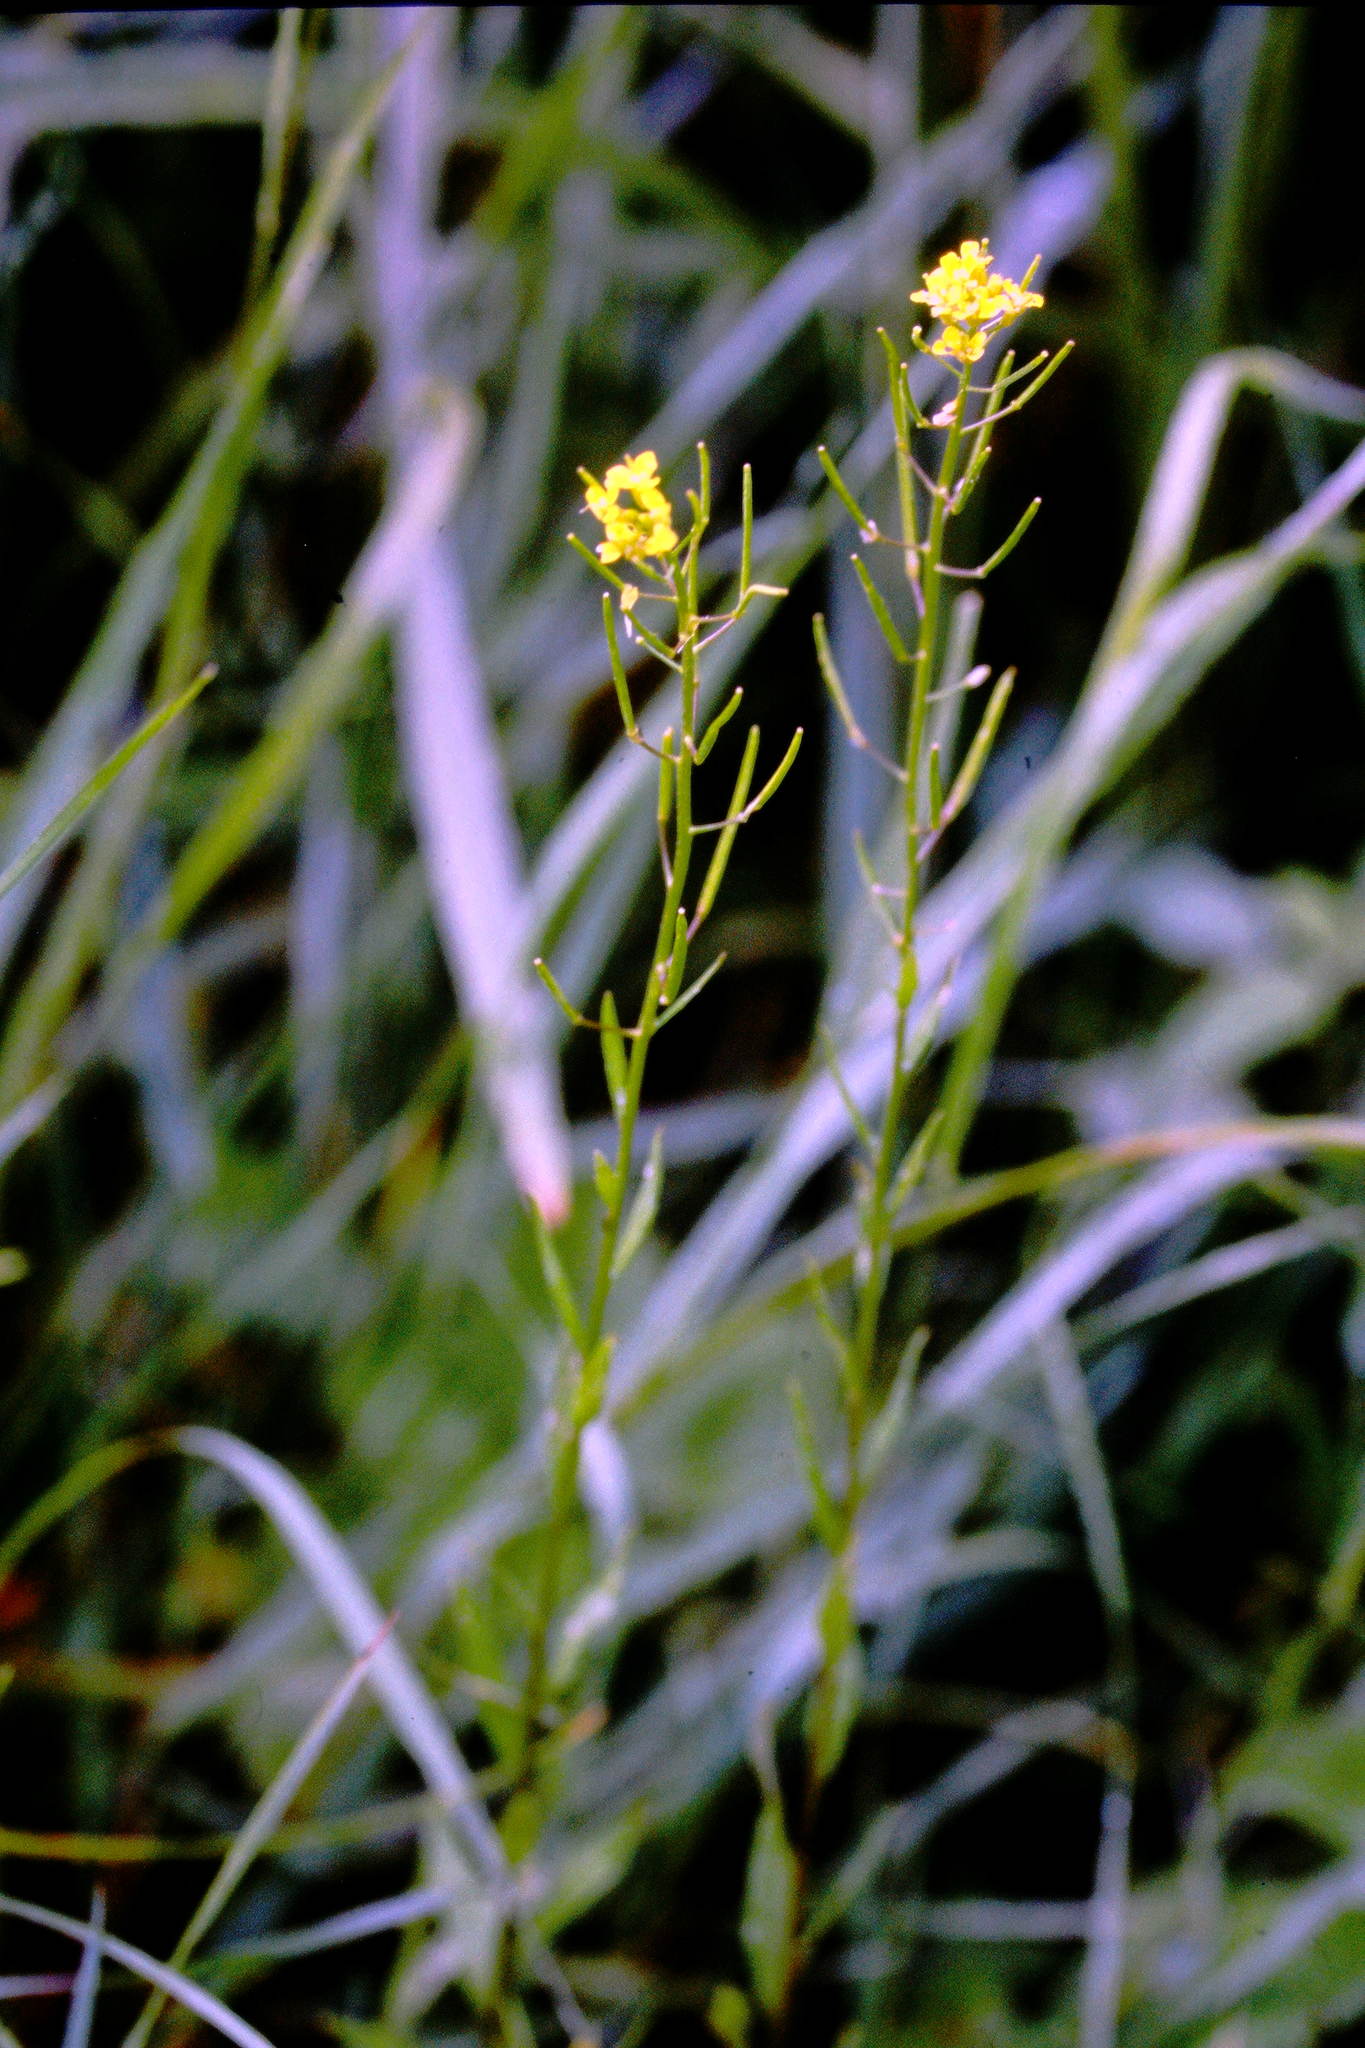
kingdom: Plantae
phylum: Tracheophyta
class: Magnoliopsida
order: Brassicales
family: Brassicaceae
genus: Erysimum
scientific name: Erysimum cheiranthoides
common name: Treacle mustard
